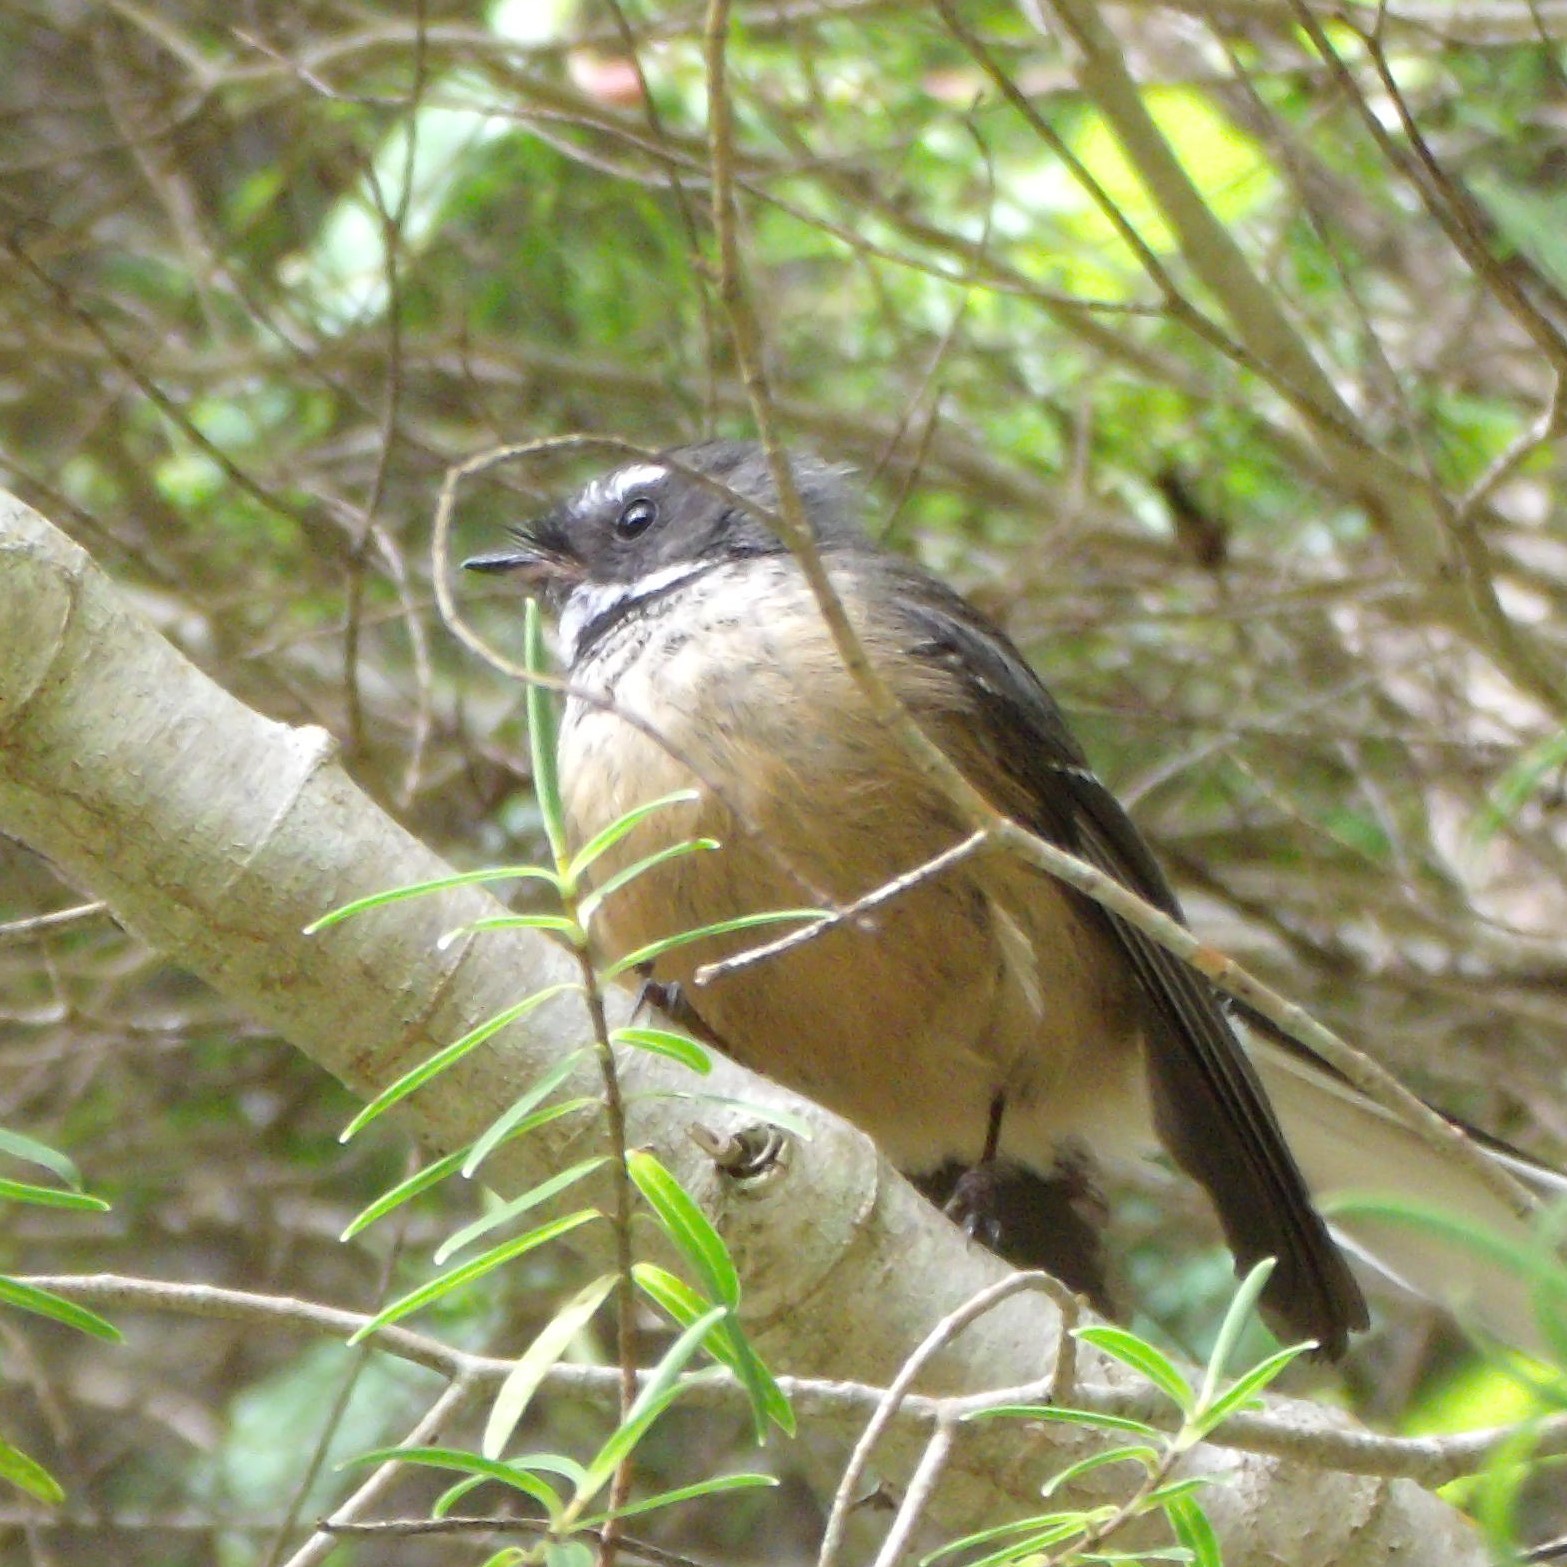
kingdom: Animalia
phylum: Chordata
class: Aves
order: Passeriformes
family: Rhipiduridae
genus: Rhipidura
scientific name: Rhipidura fuliginosa
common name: New zealand fantail
